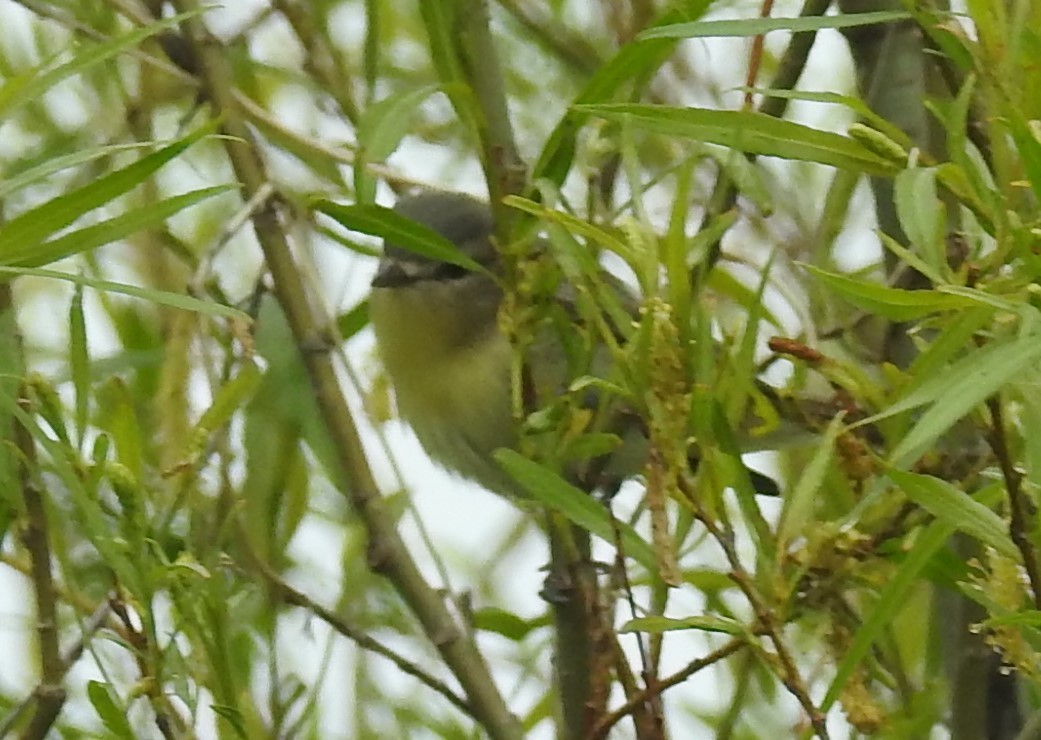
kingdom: Animalia
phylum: Chordata
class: Aves
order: Passeriformes
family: Vireonidae
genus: Vireo
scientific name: Vireo philadelphicus
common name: Philadelphia vireo
